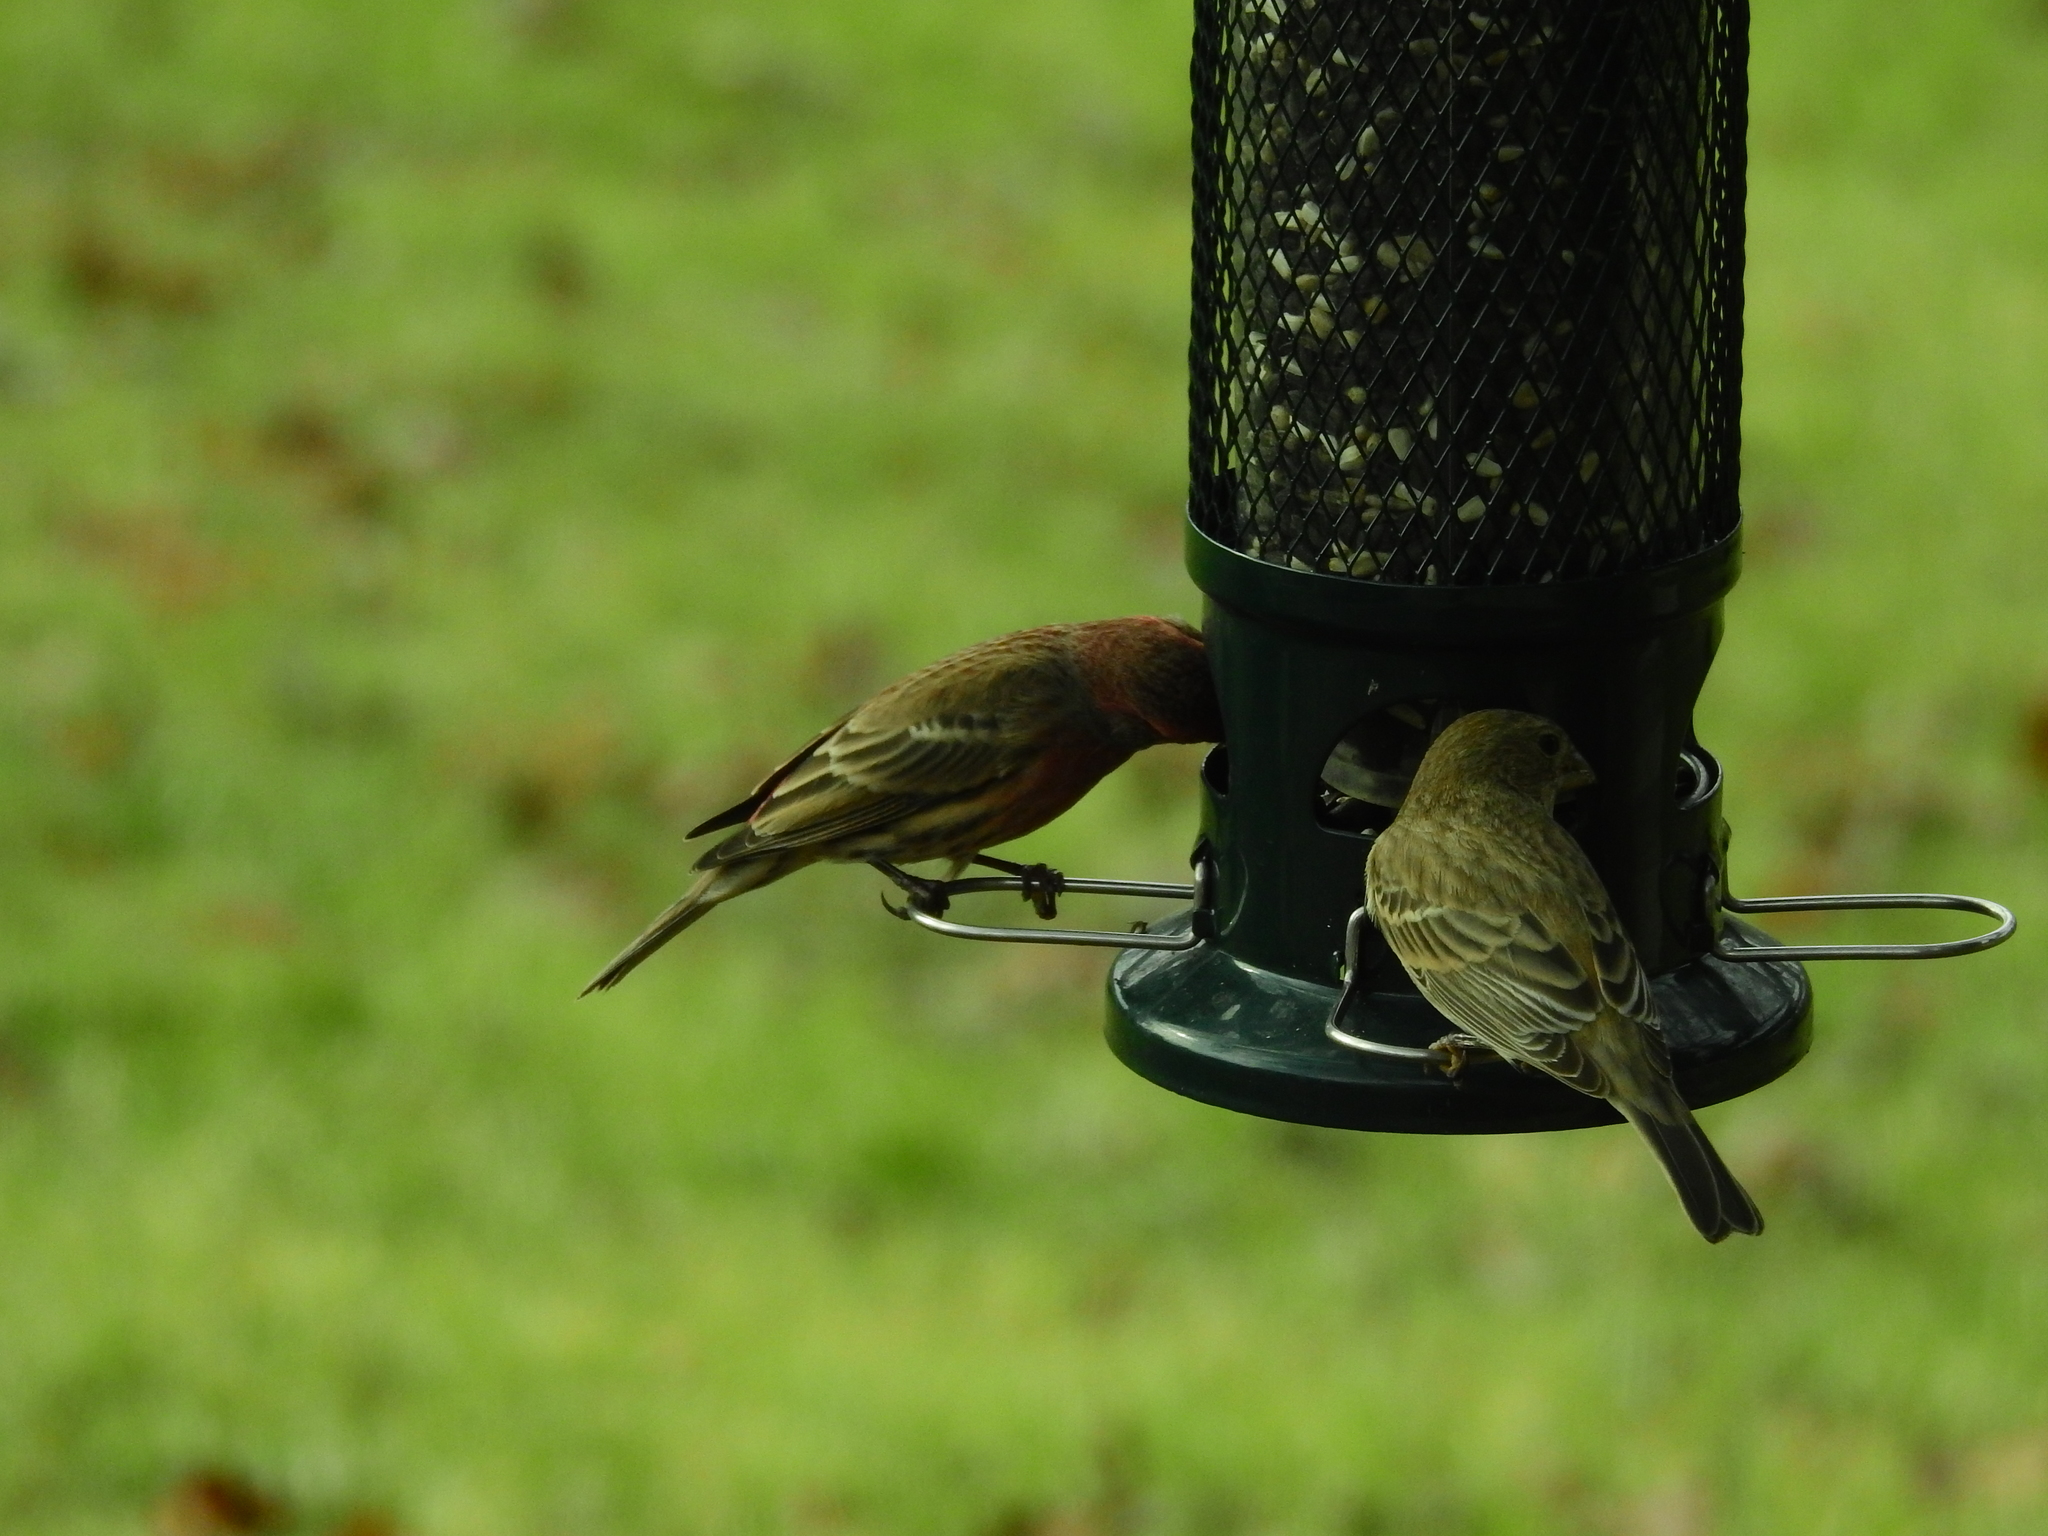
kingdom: Animalia
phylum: Chordata
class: Aves
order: Passeriformes
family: Fringillidae
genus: Haemorhous
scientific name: Haemorhous mexicanus
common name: House finch
